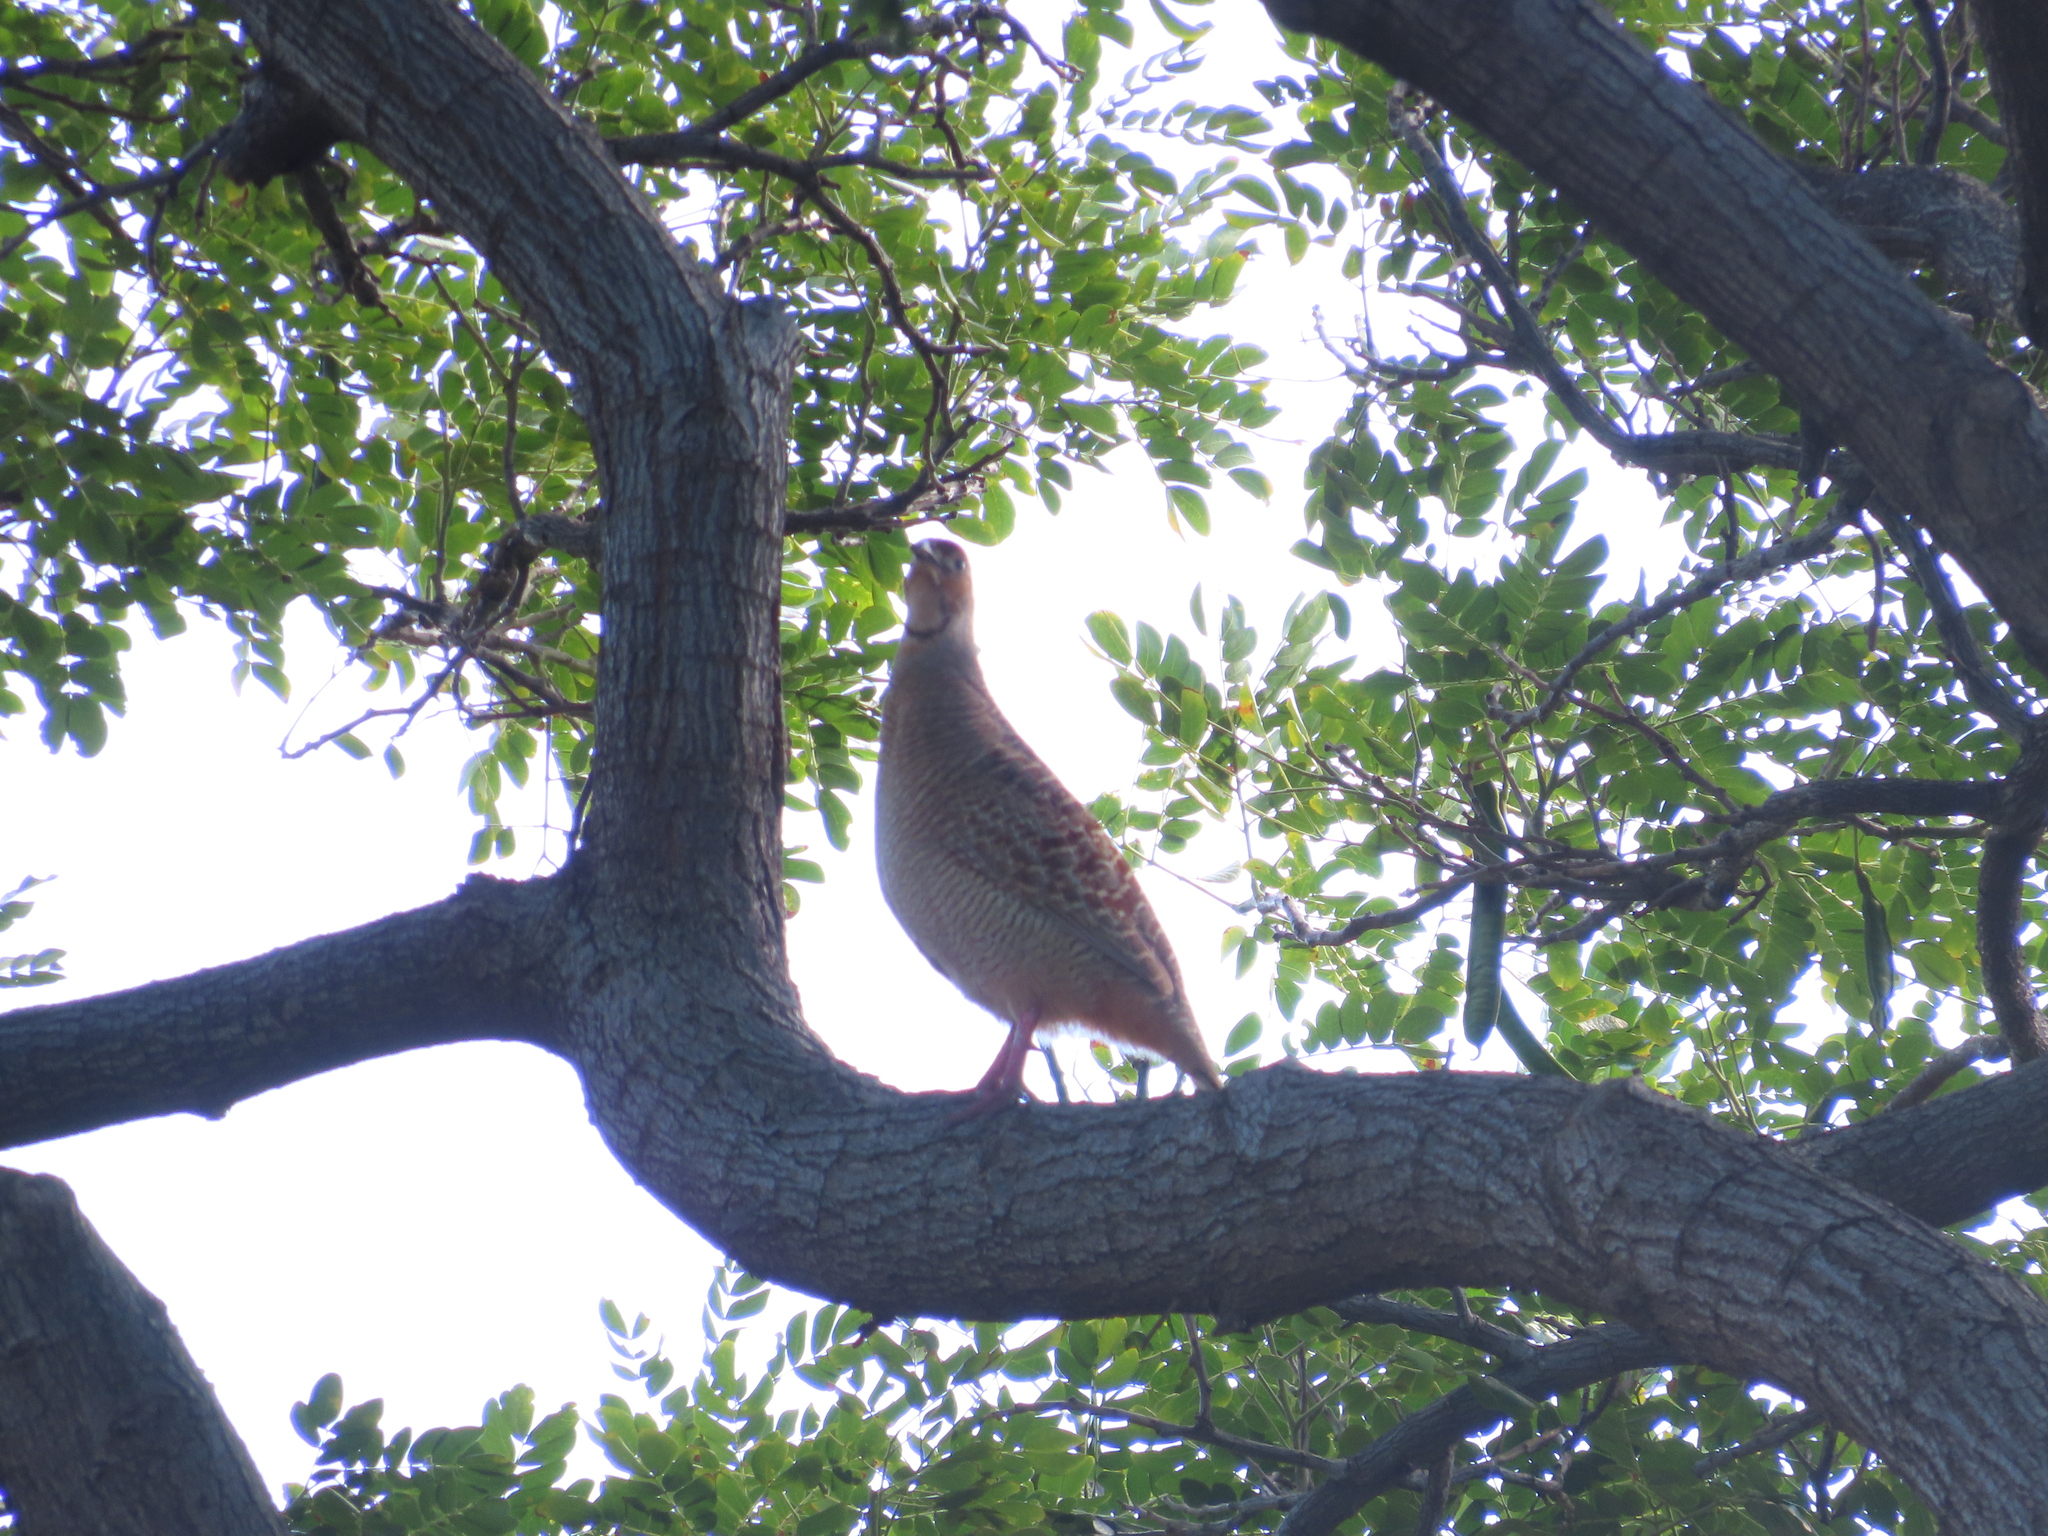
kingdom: Animalia
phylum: Chordata
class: Aves
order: Galliformes
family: Phasianidae
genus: Ortygornis
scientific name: Ortygornis pondicerianus
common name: Grey francolin
